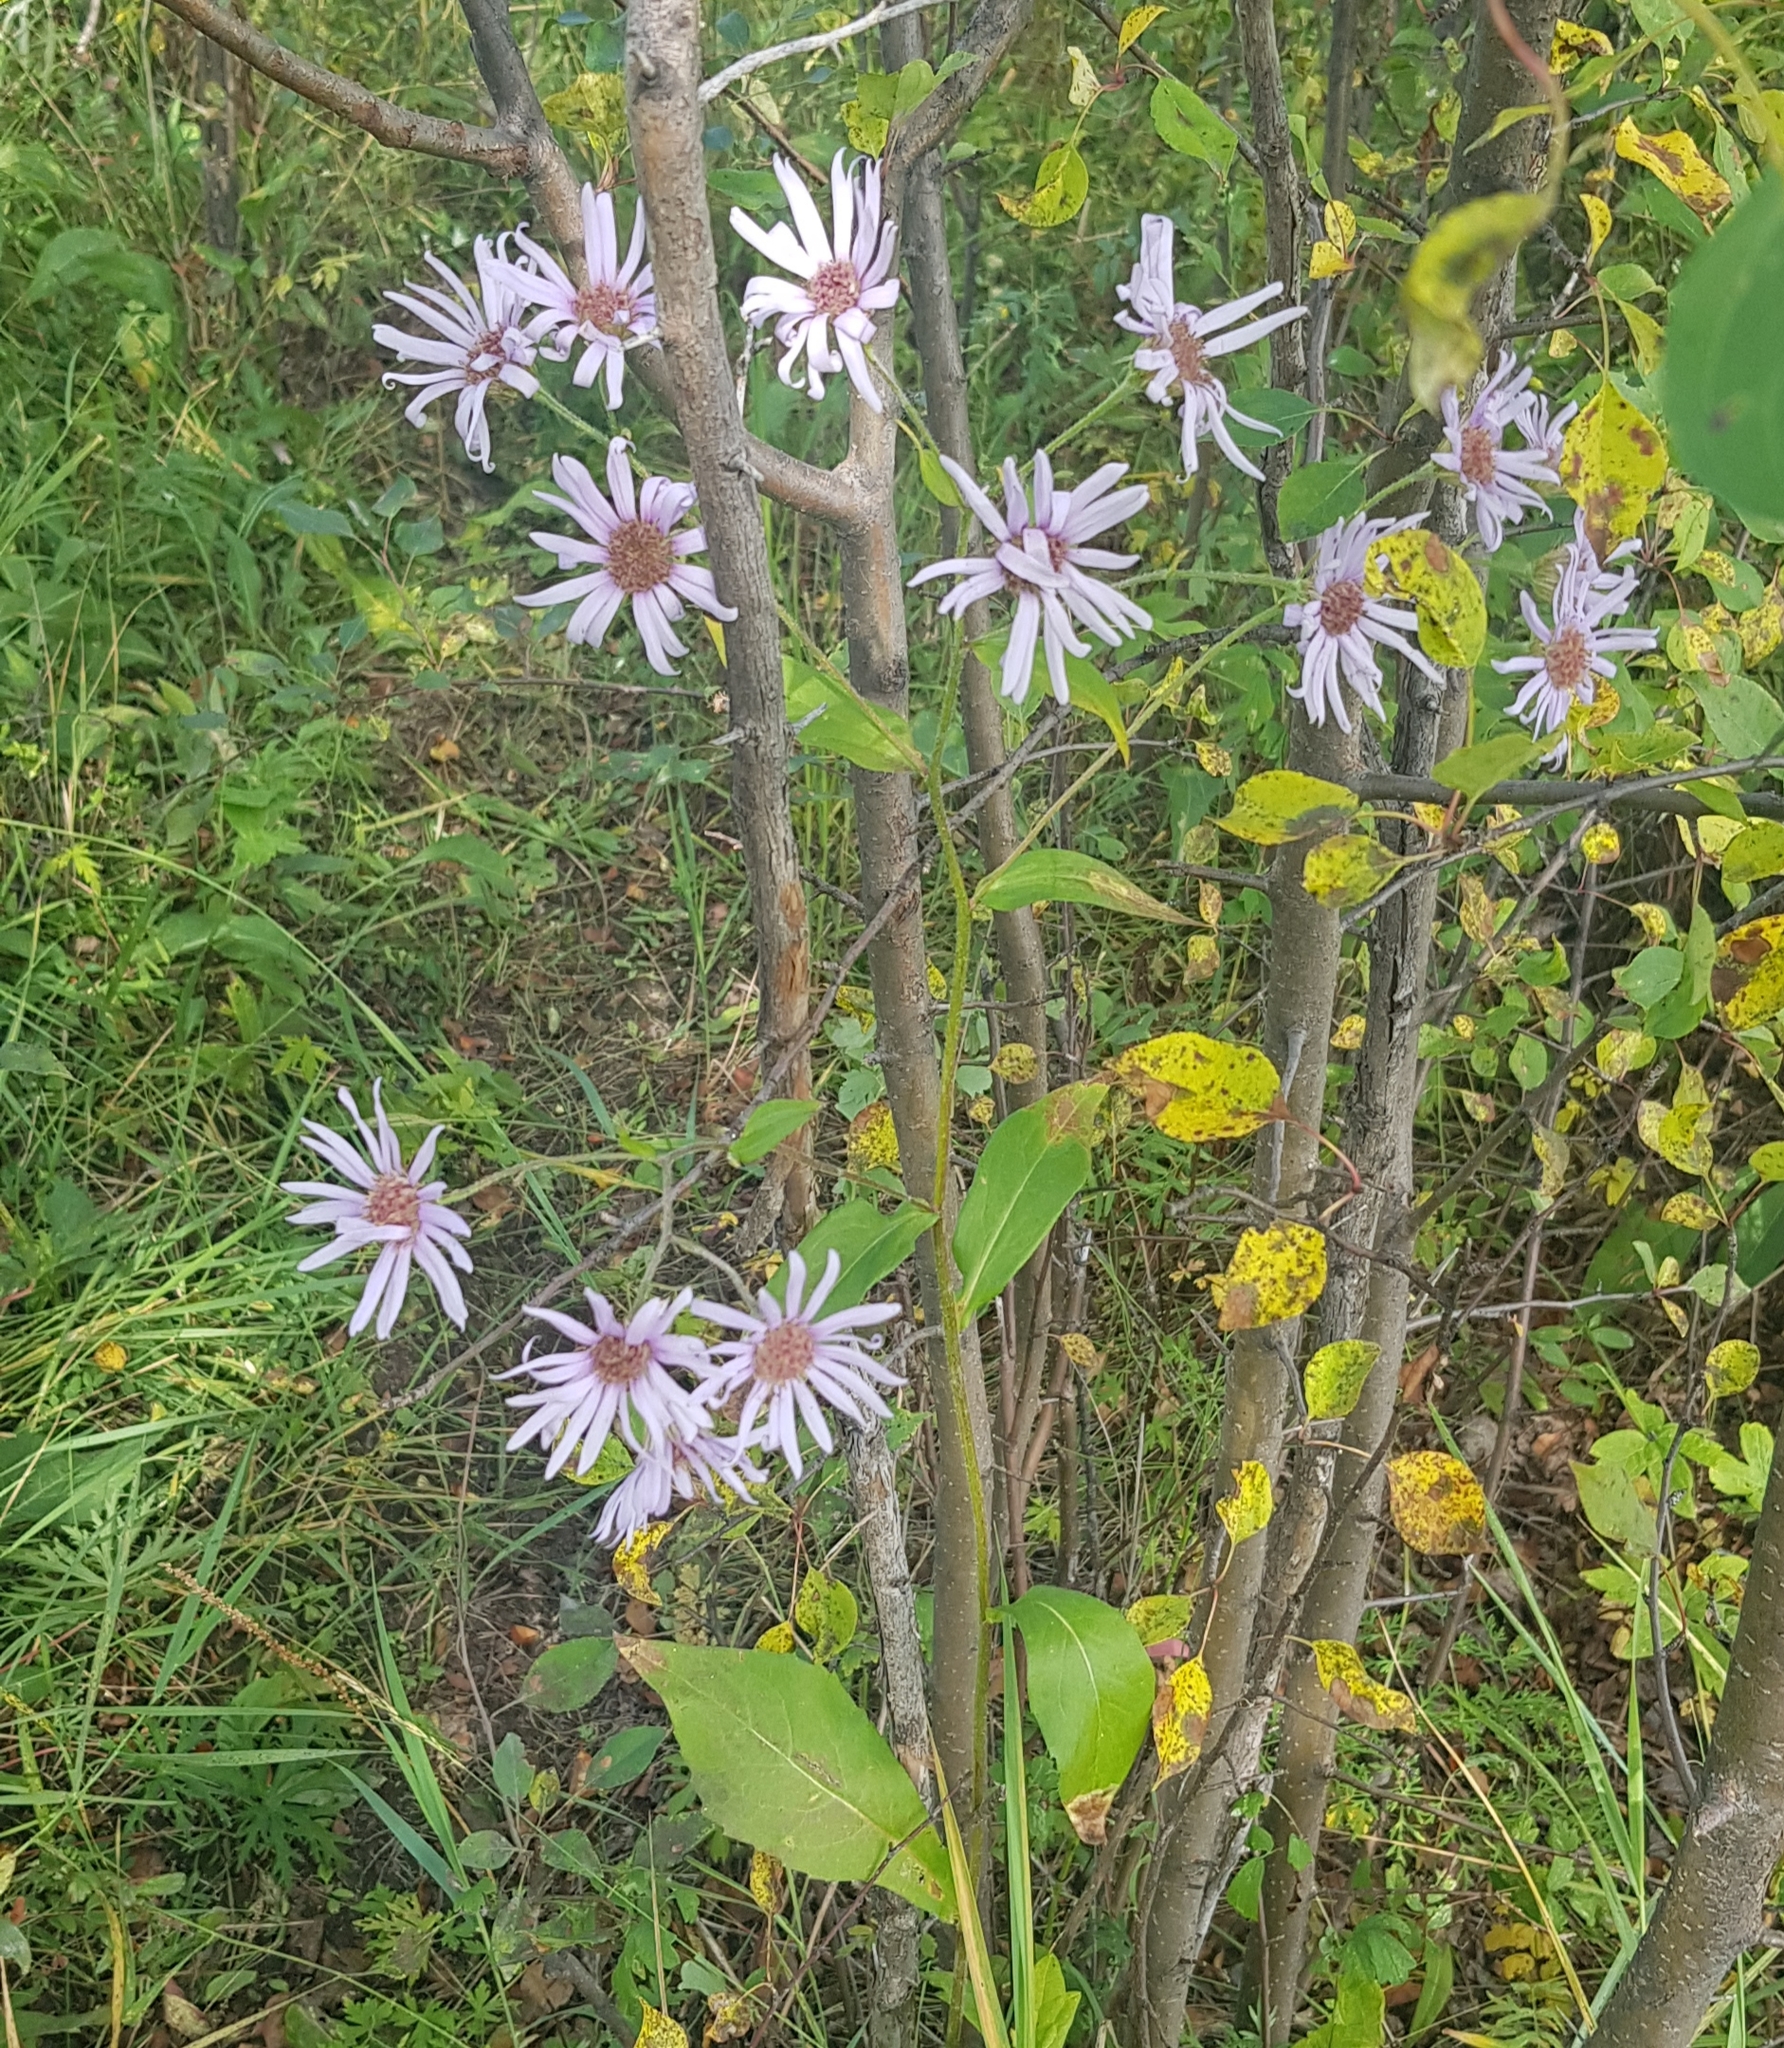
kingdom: Plantae
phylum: Tracheophyta
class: Magnoliopsida
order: Asterales
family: Asteraceae
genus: Aster
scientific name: Aster tataricus
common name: Tatarian aster
